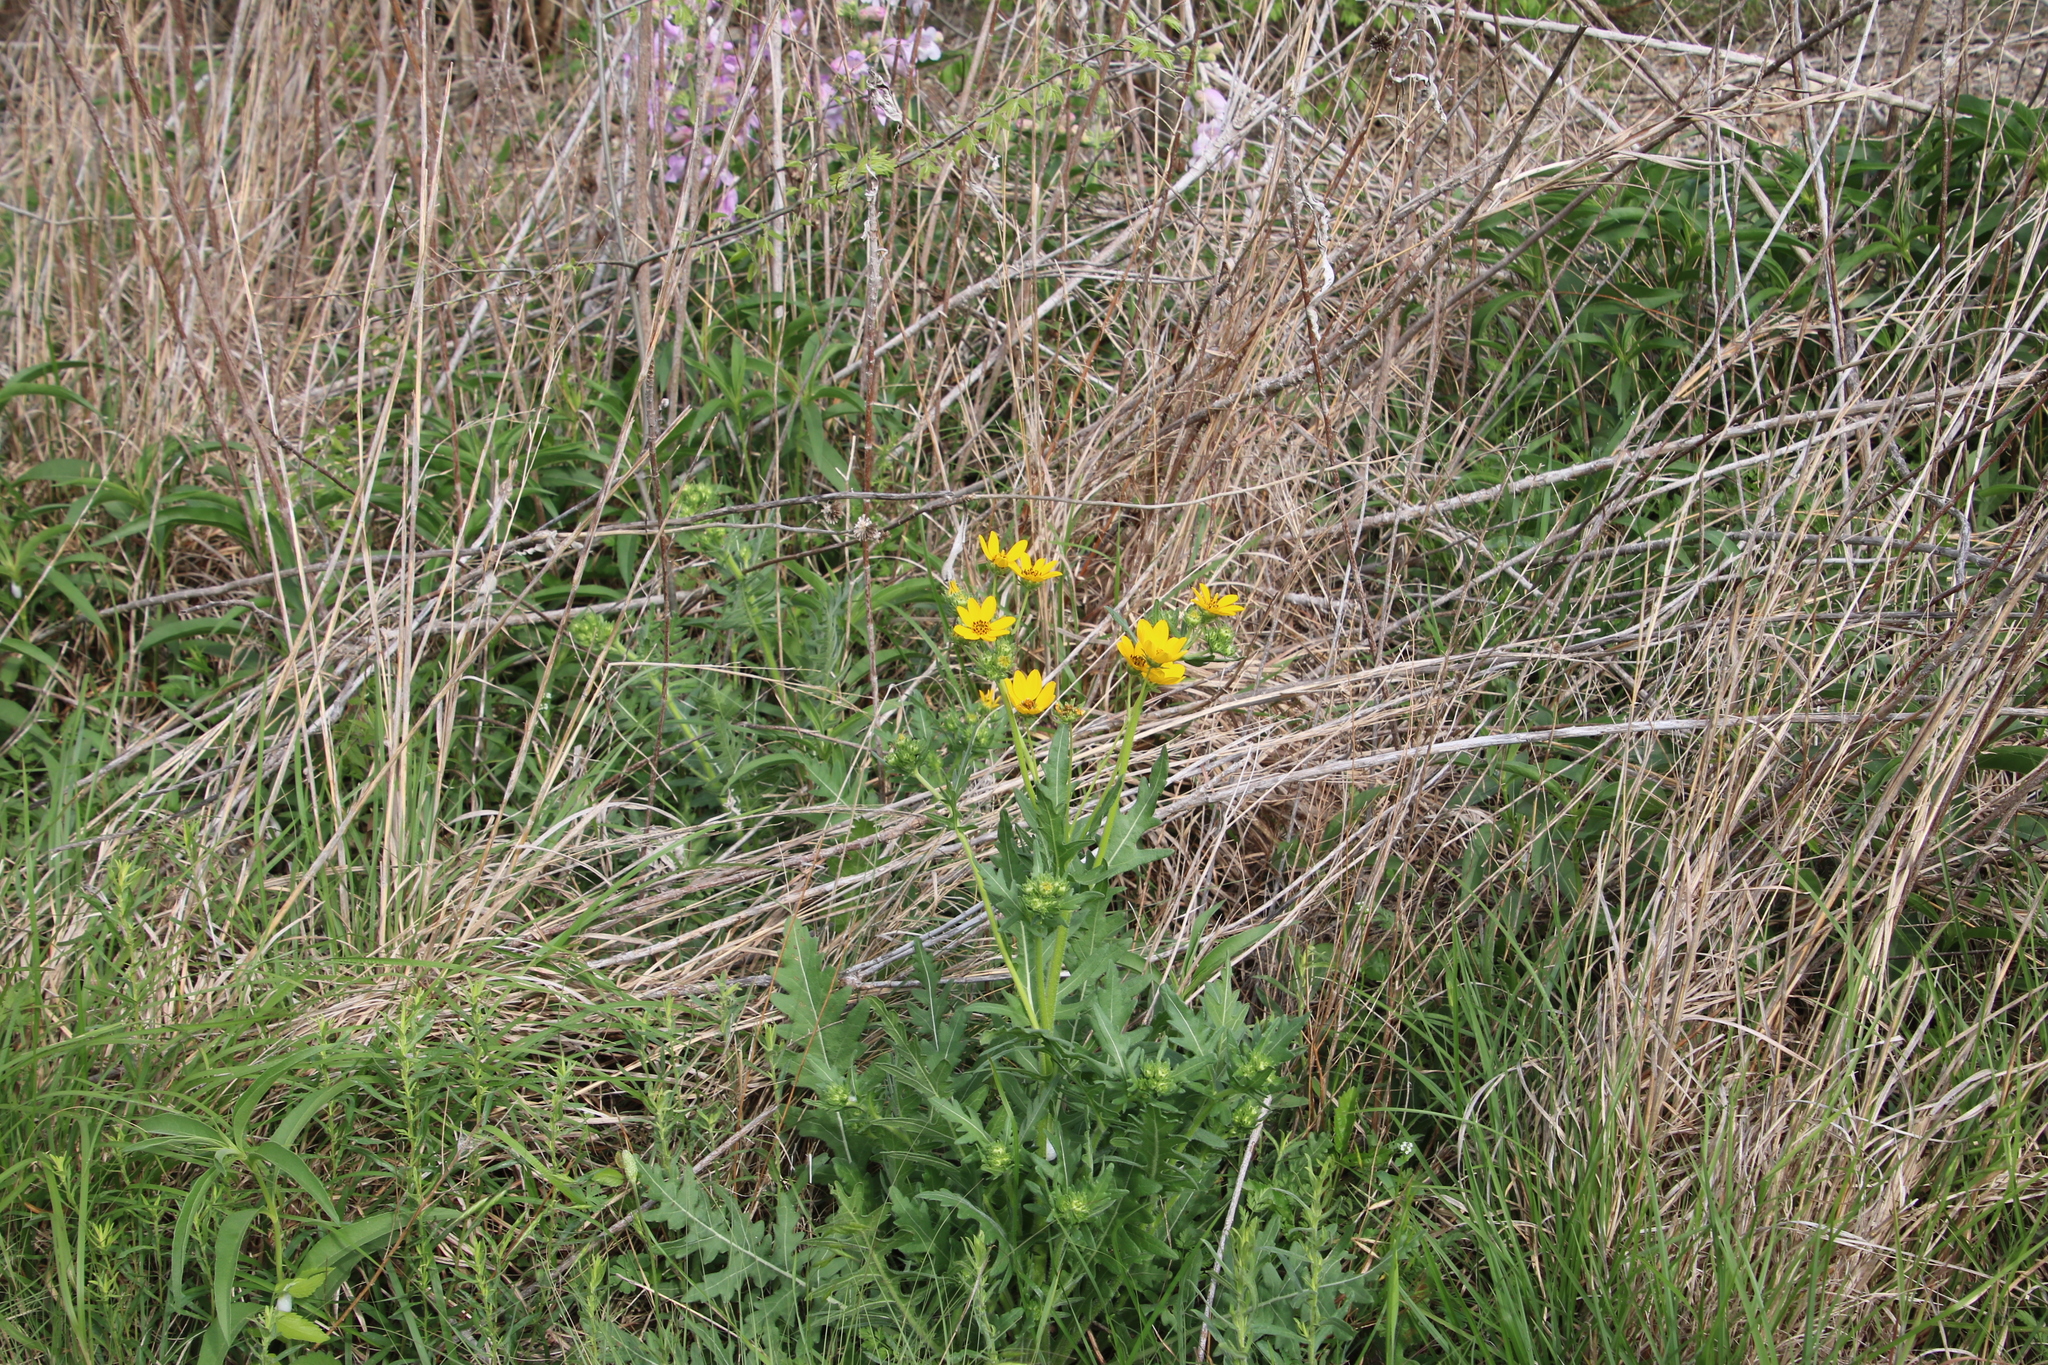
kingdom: Plantae
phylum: Tracheophyta
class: Magnoliopsida
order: Asterales
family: Asteraceae
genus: Engelmannia
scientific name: Engelmannia peristenia
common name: Engelmann's daisy
